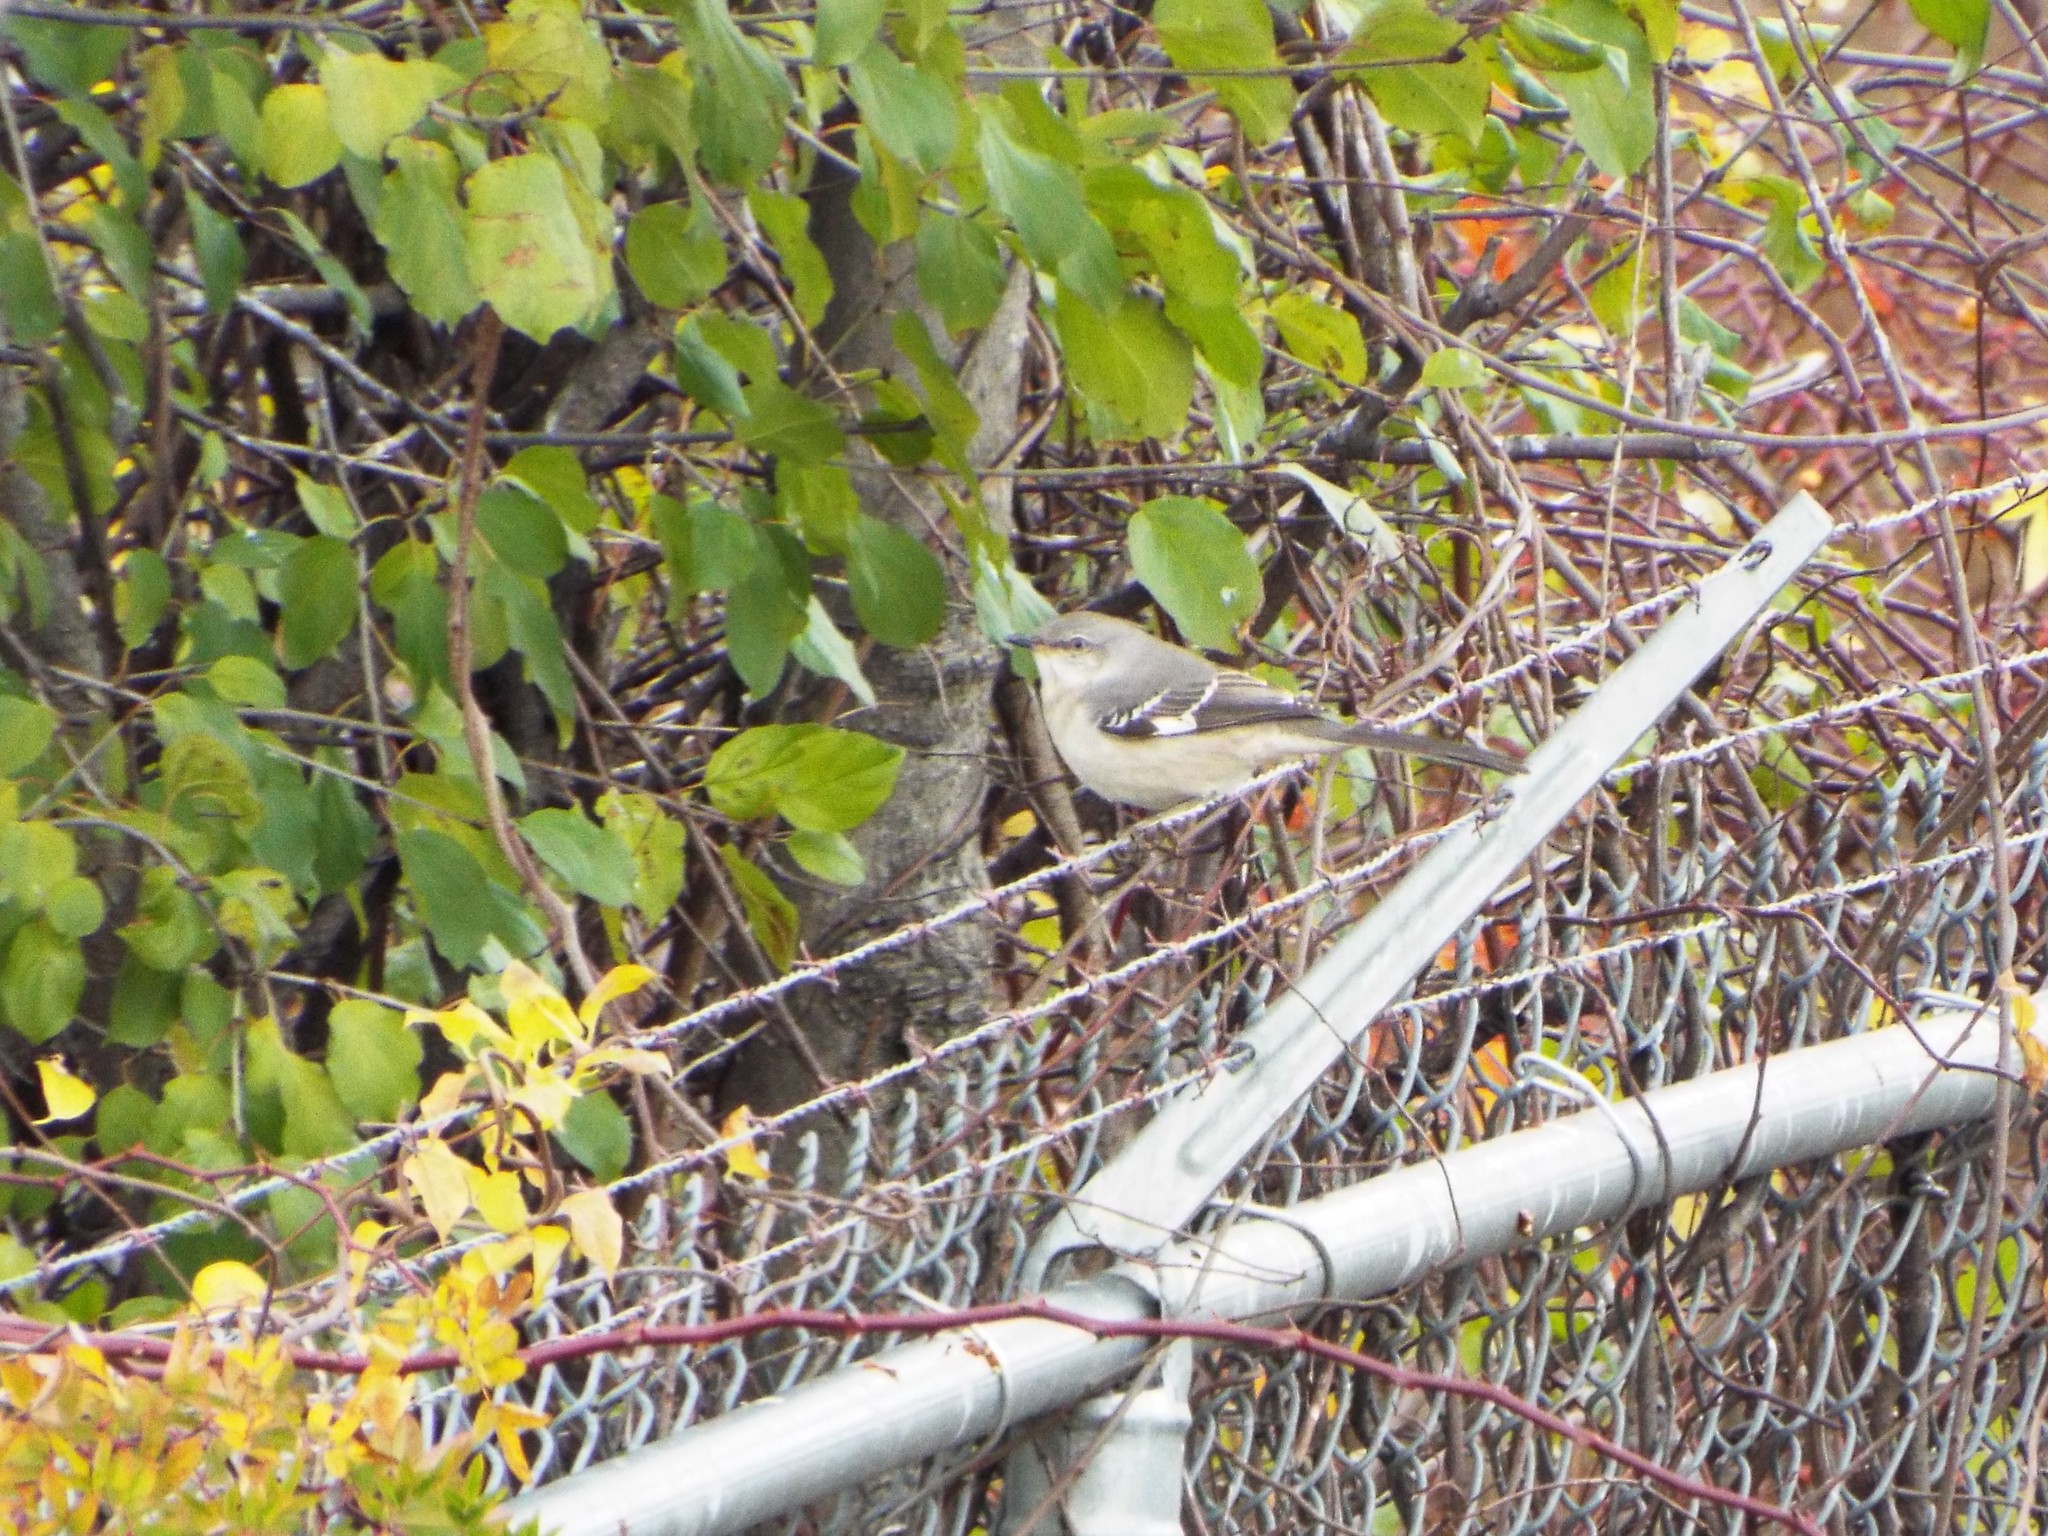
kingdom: Animalia
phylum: Chordata
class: Aves
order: Passeriformes
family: Mimidae
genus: Mimus
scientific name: Mimus polyglottos
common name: Northern mockingbird
